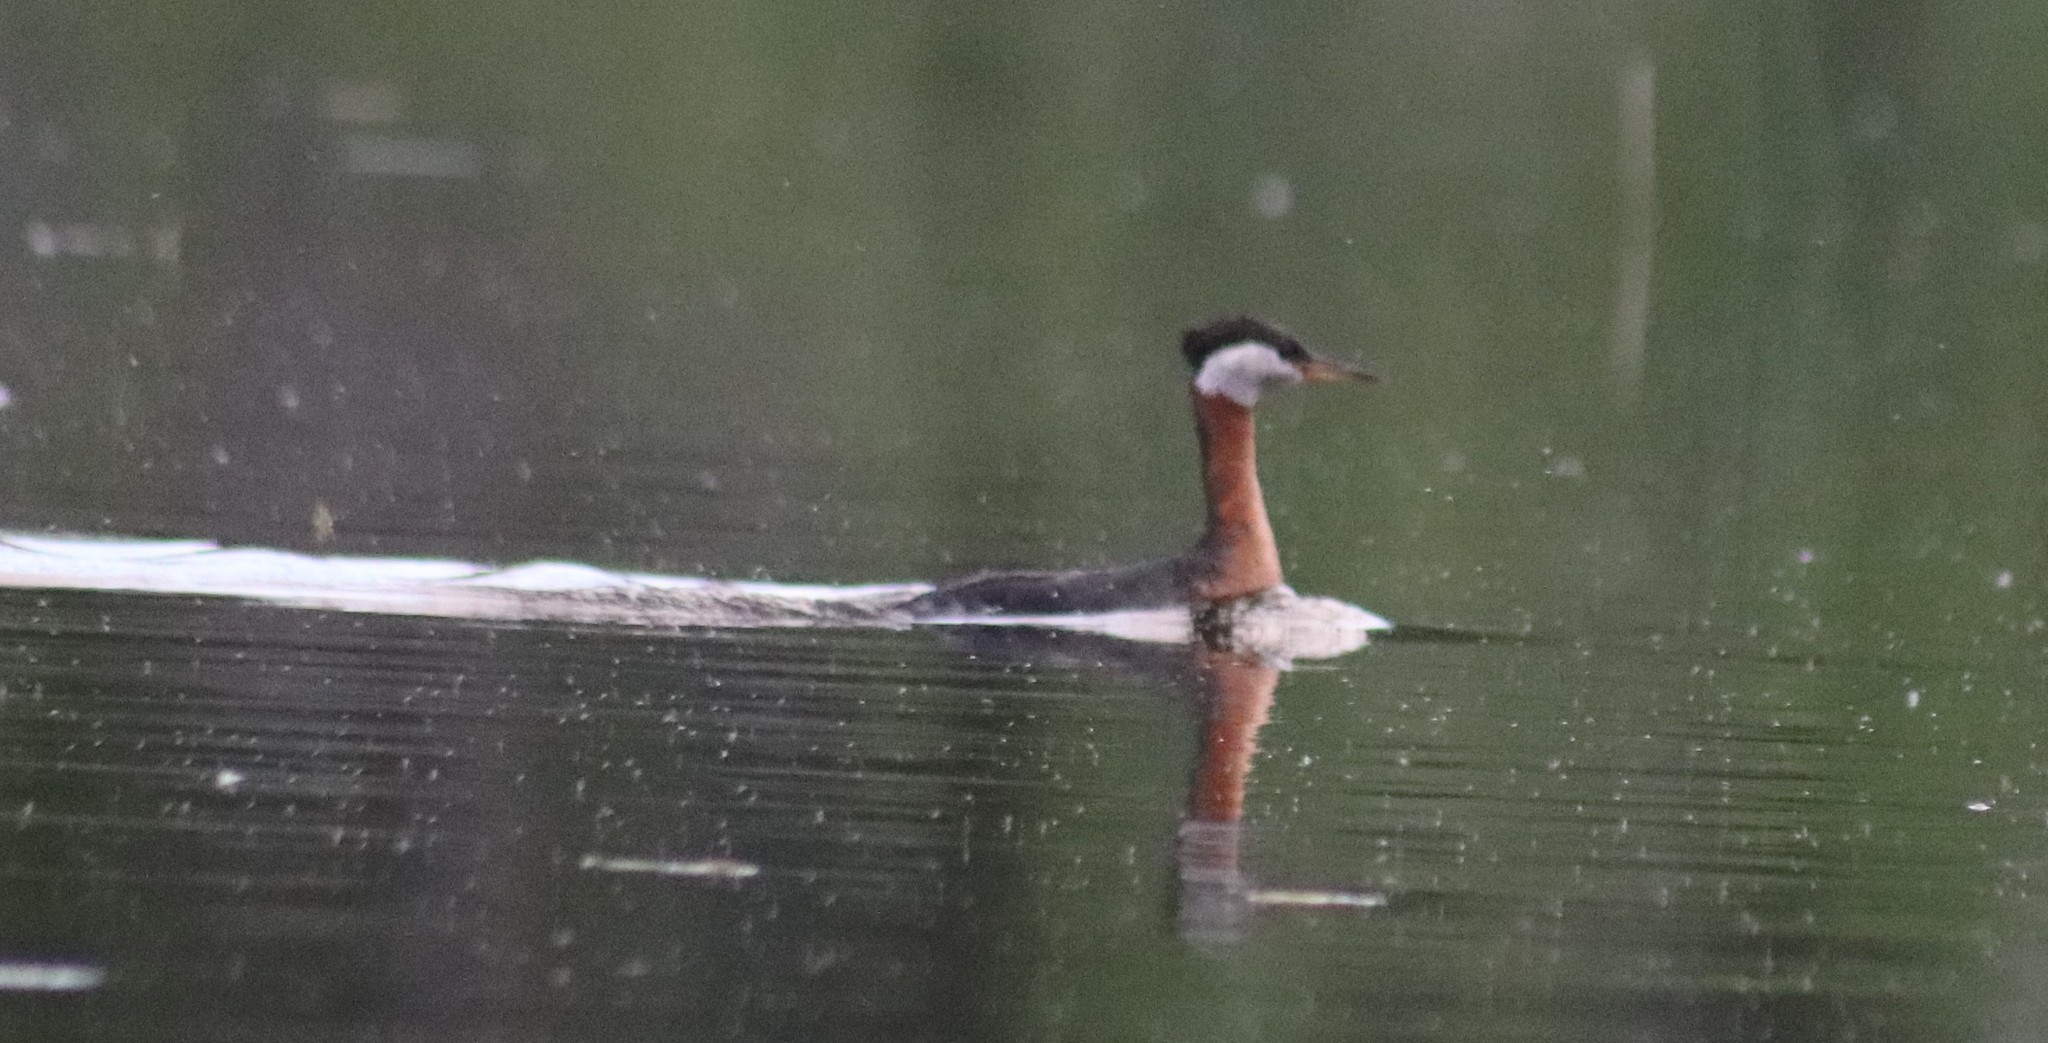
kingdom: Animalia
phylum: Chordata
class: Aves
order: Podicipediformes
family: Podicipedidae
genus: Podiceps
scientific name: Podiceps grisegena
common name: Red-necked grebe
